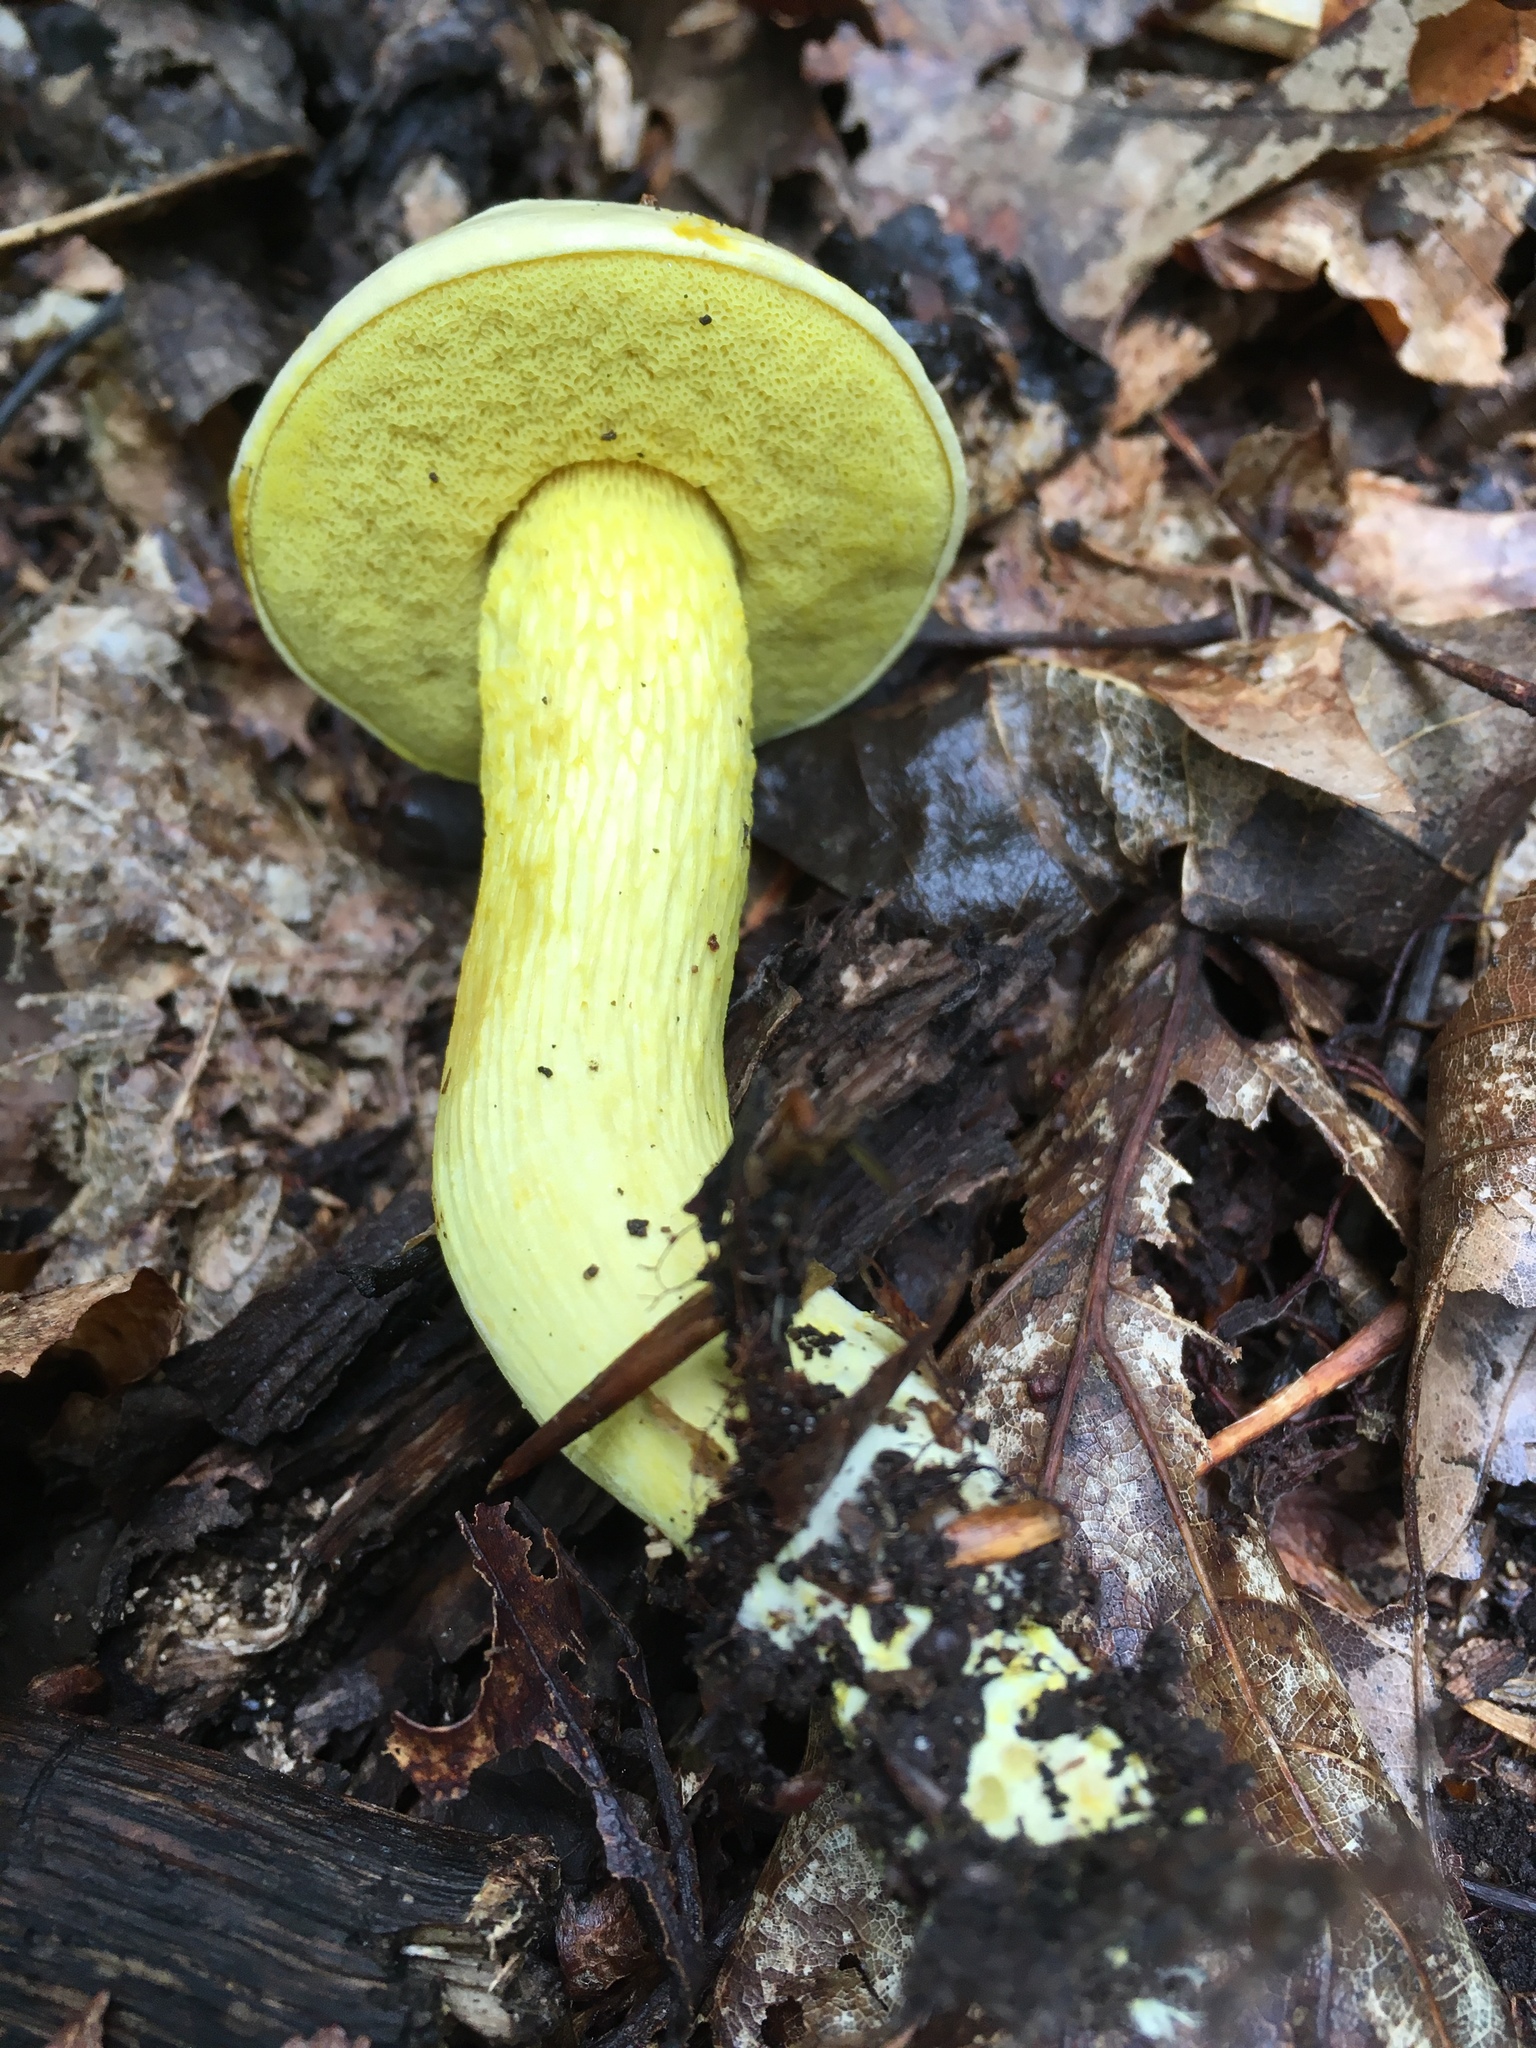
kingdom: Fungi
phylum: Basidiomycota
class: Agaricomycetes
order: Boletales
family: Boletaceae
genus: Retiboletus
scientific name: Retiboletus ornatipes
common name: Ornate-stalked bolete
